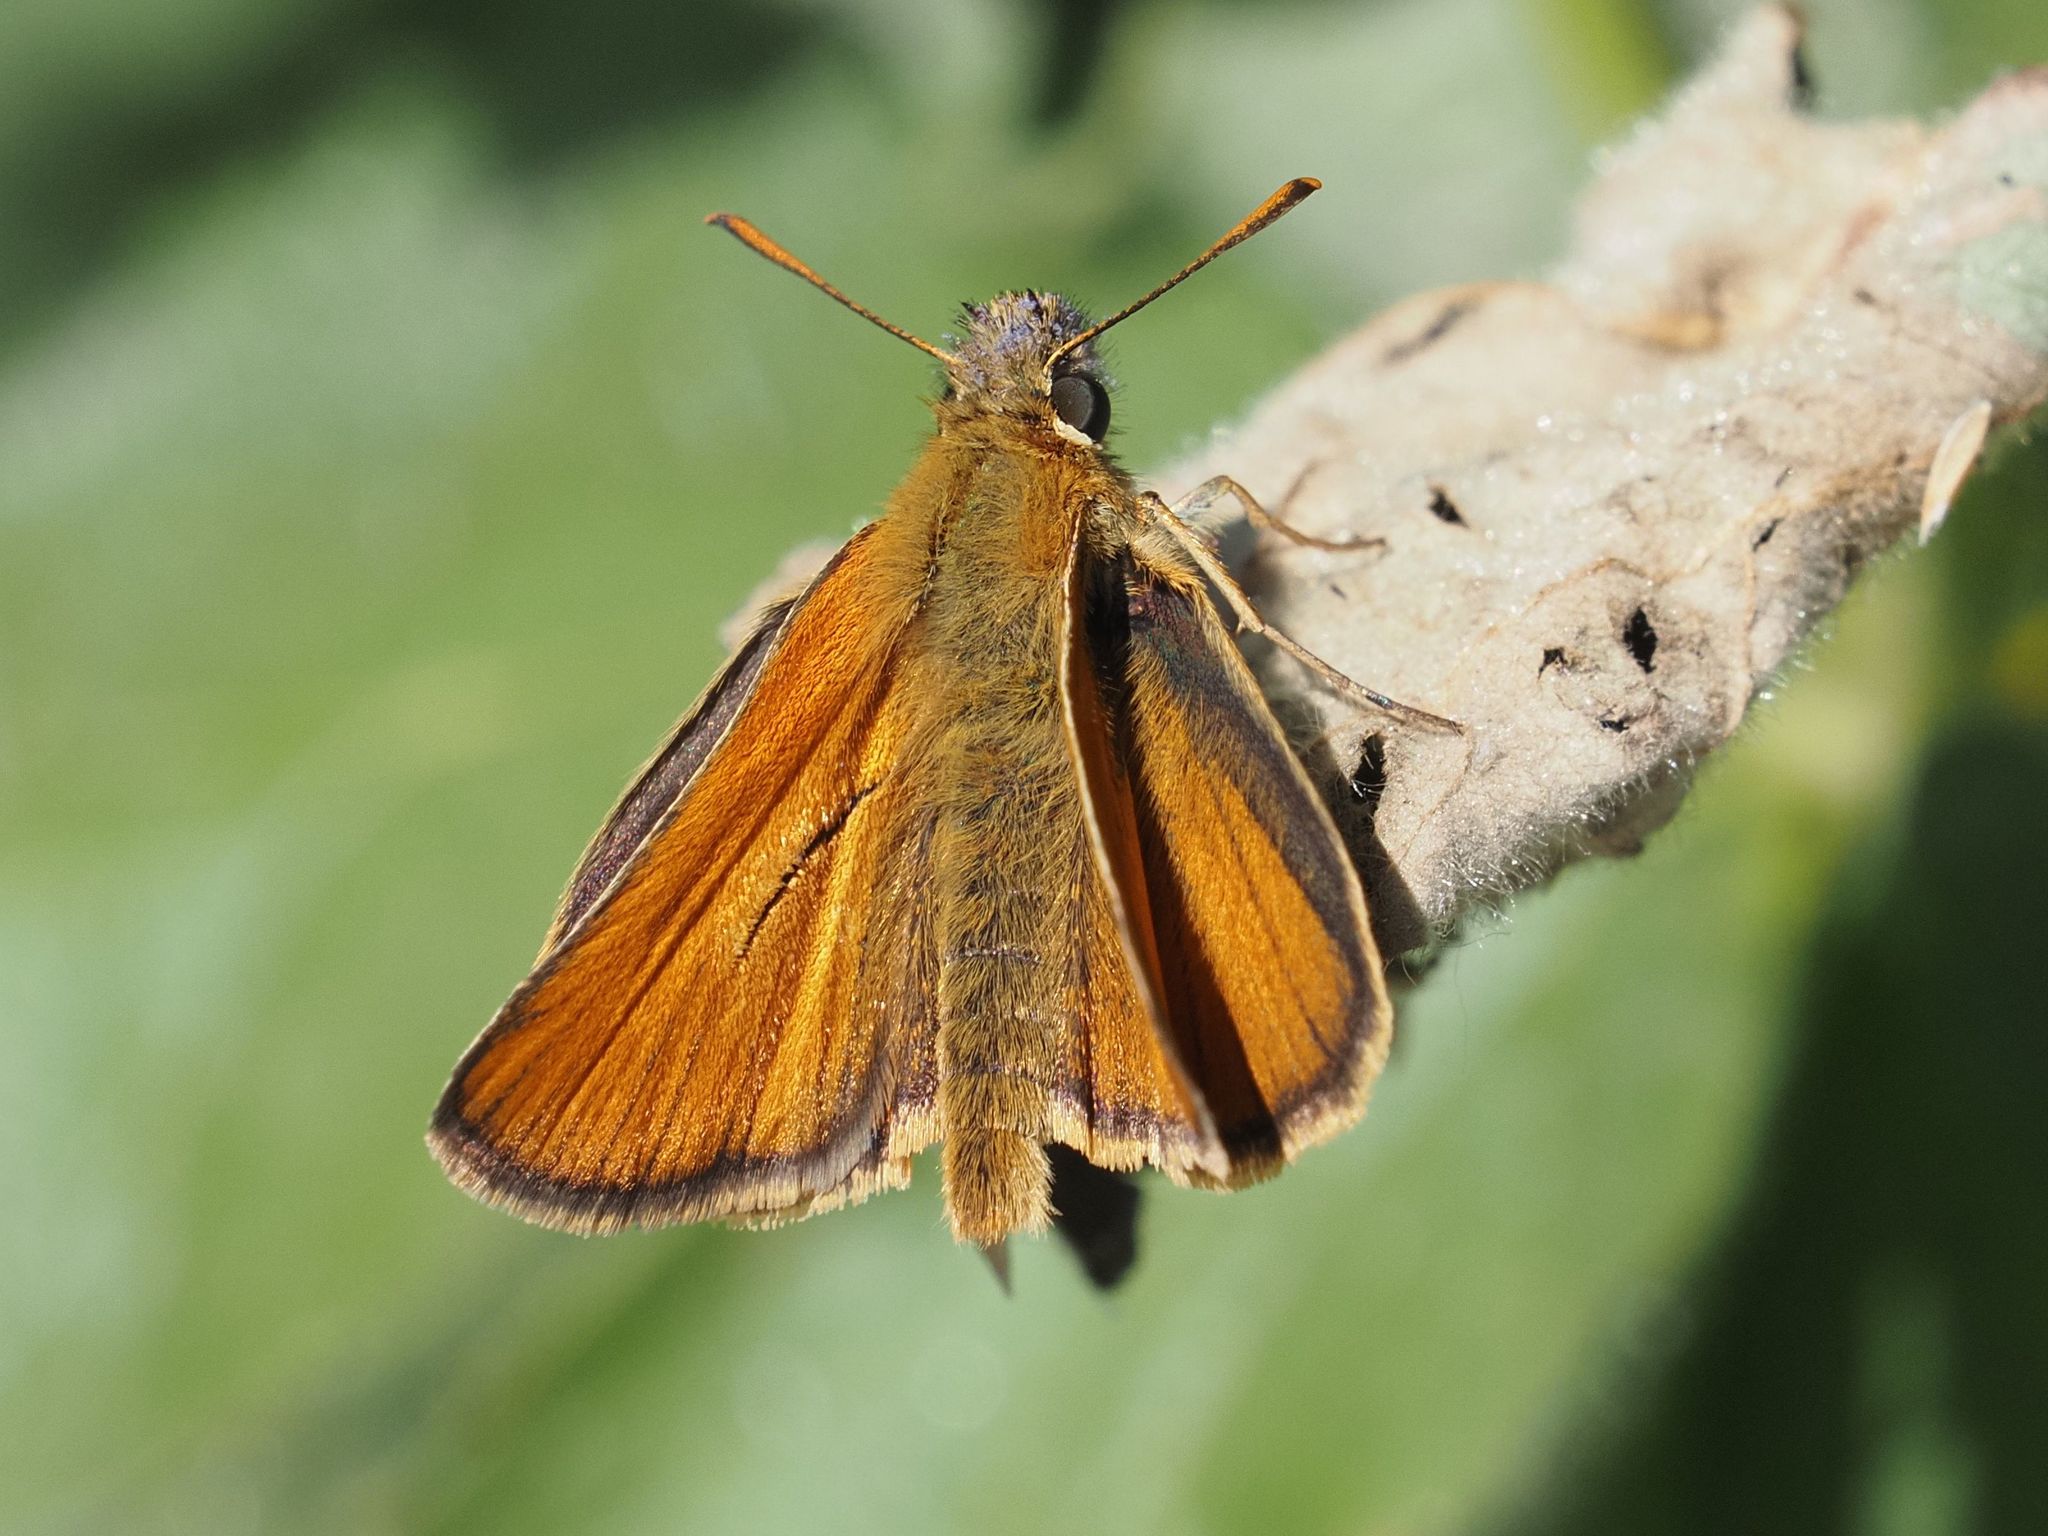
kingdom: Animalia
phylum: Arthropoda
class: Insecta
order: Lepidoptera
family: Hesperiidae
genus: Thymelicus
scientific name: Thymelicus sylvestris
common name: Small skipper
